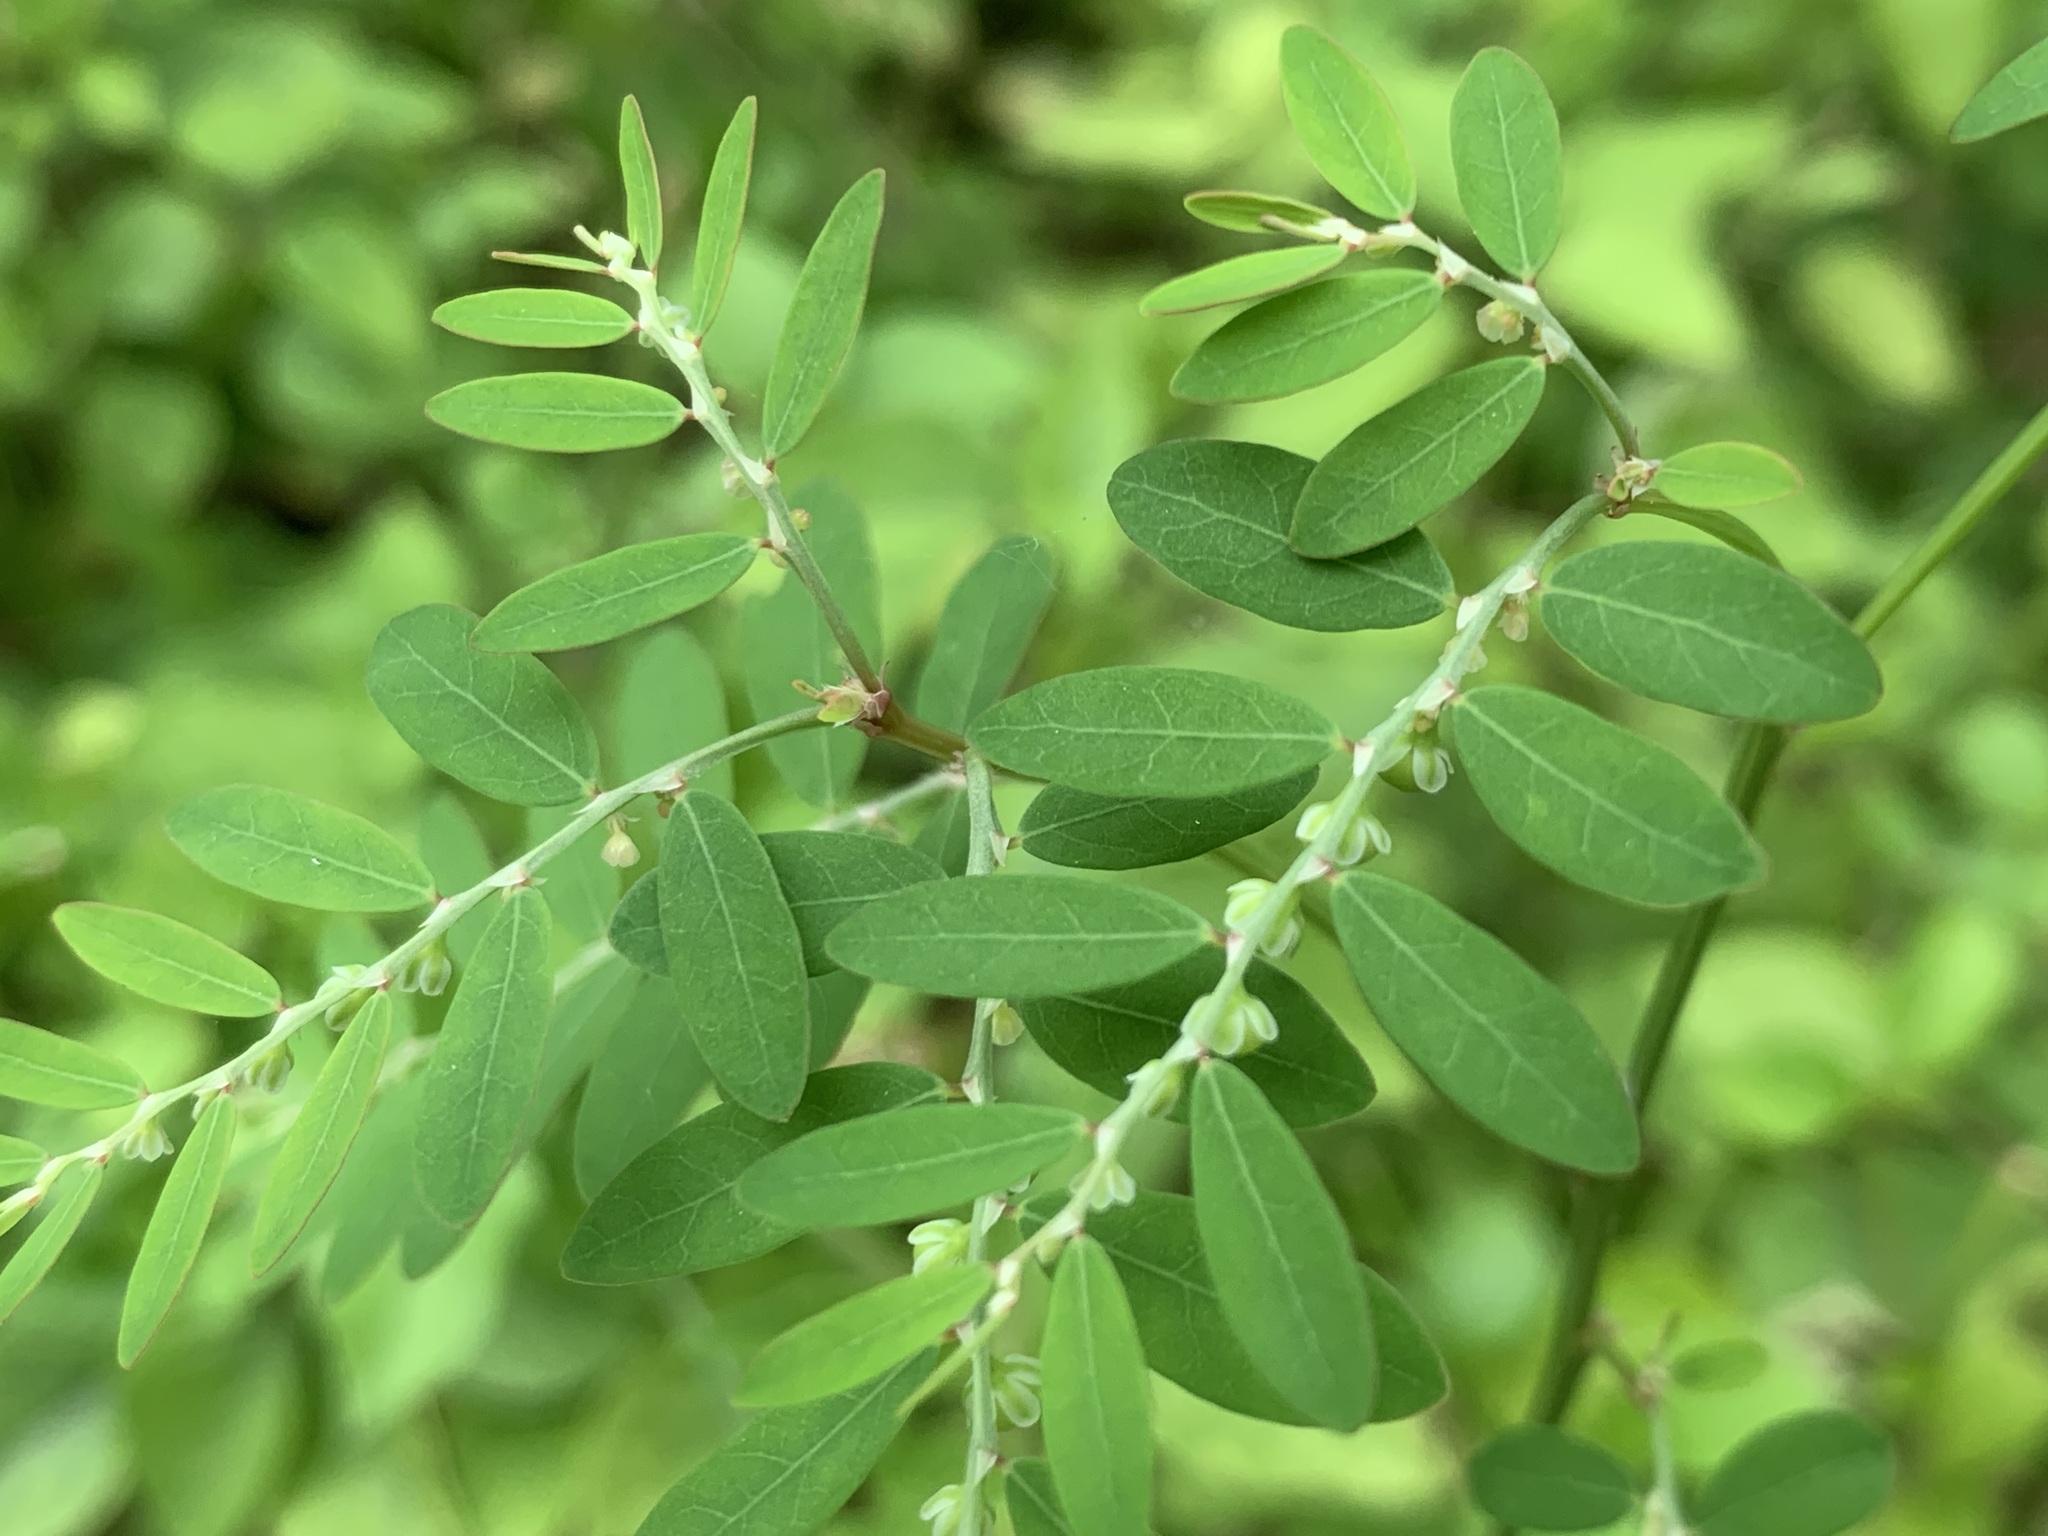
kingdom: Plantae
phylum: Tracheophyta
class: Magnoliopsida
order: Malpighiales
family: Phyllanthaceae
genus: Phyllanthus
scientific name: Phyllanthus debilis
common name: Niruri
